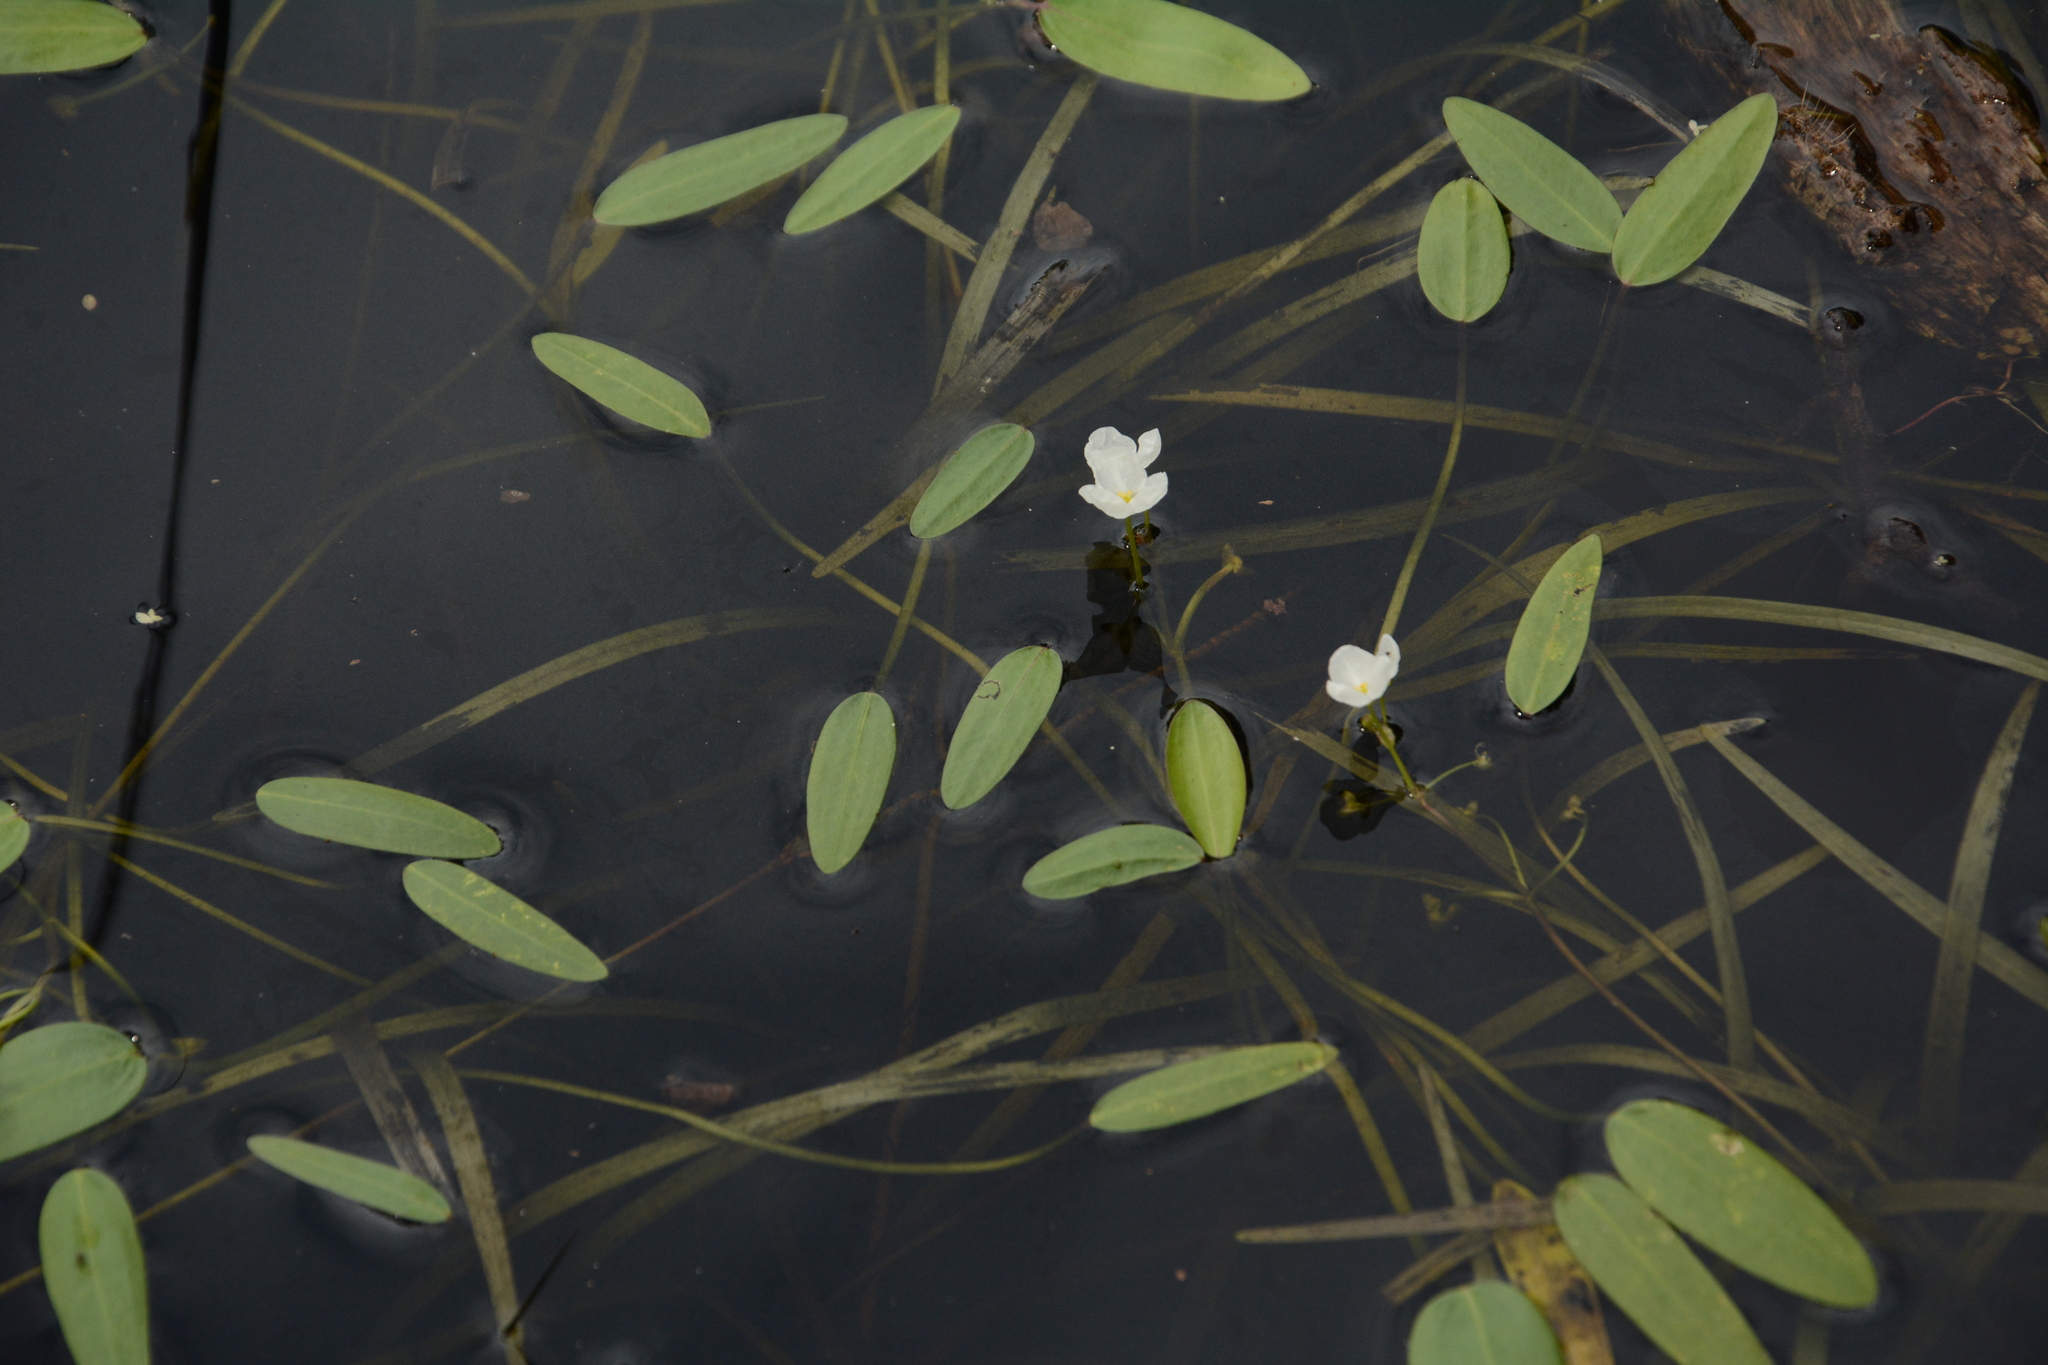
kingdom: Plantae
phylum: Tracheophyta
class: Liliopsida
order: Alismatales
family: Alismataceae
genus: Sagittaria
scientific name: Sagittaria filiformis
